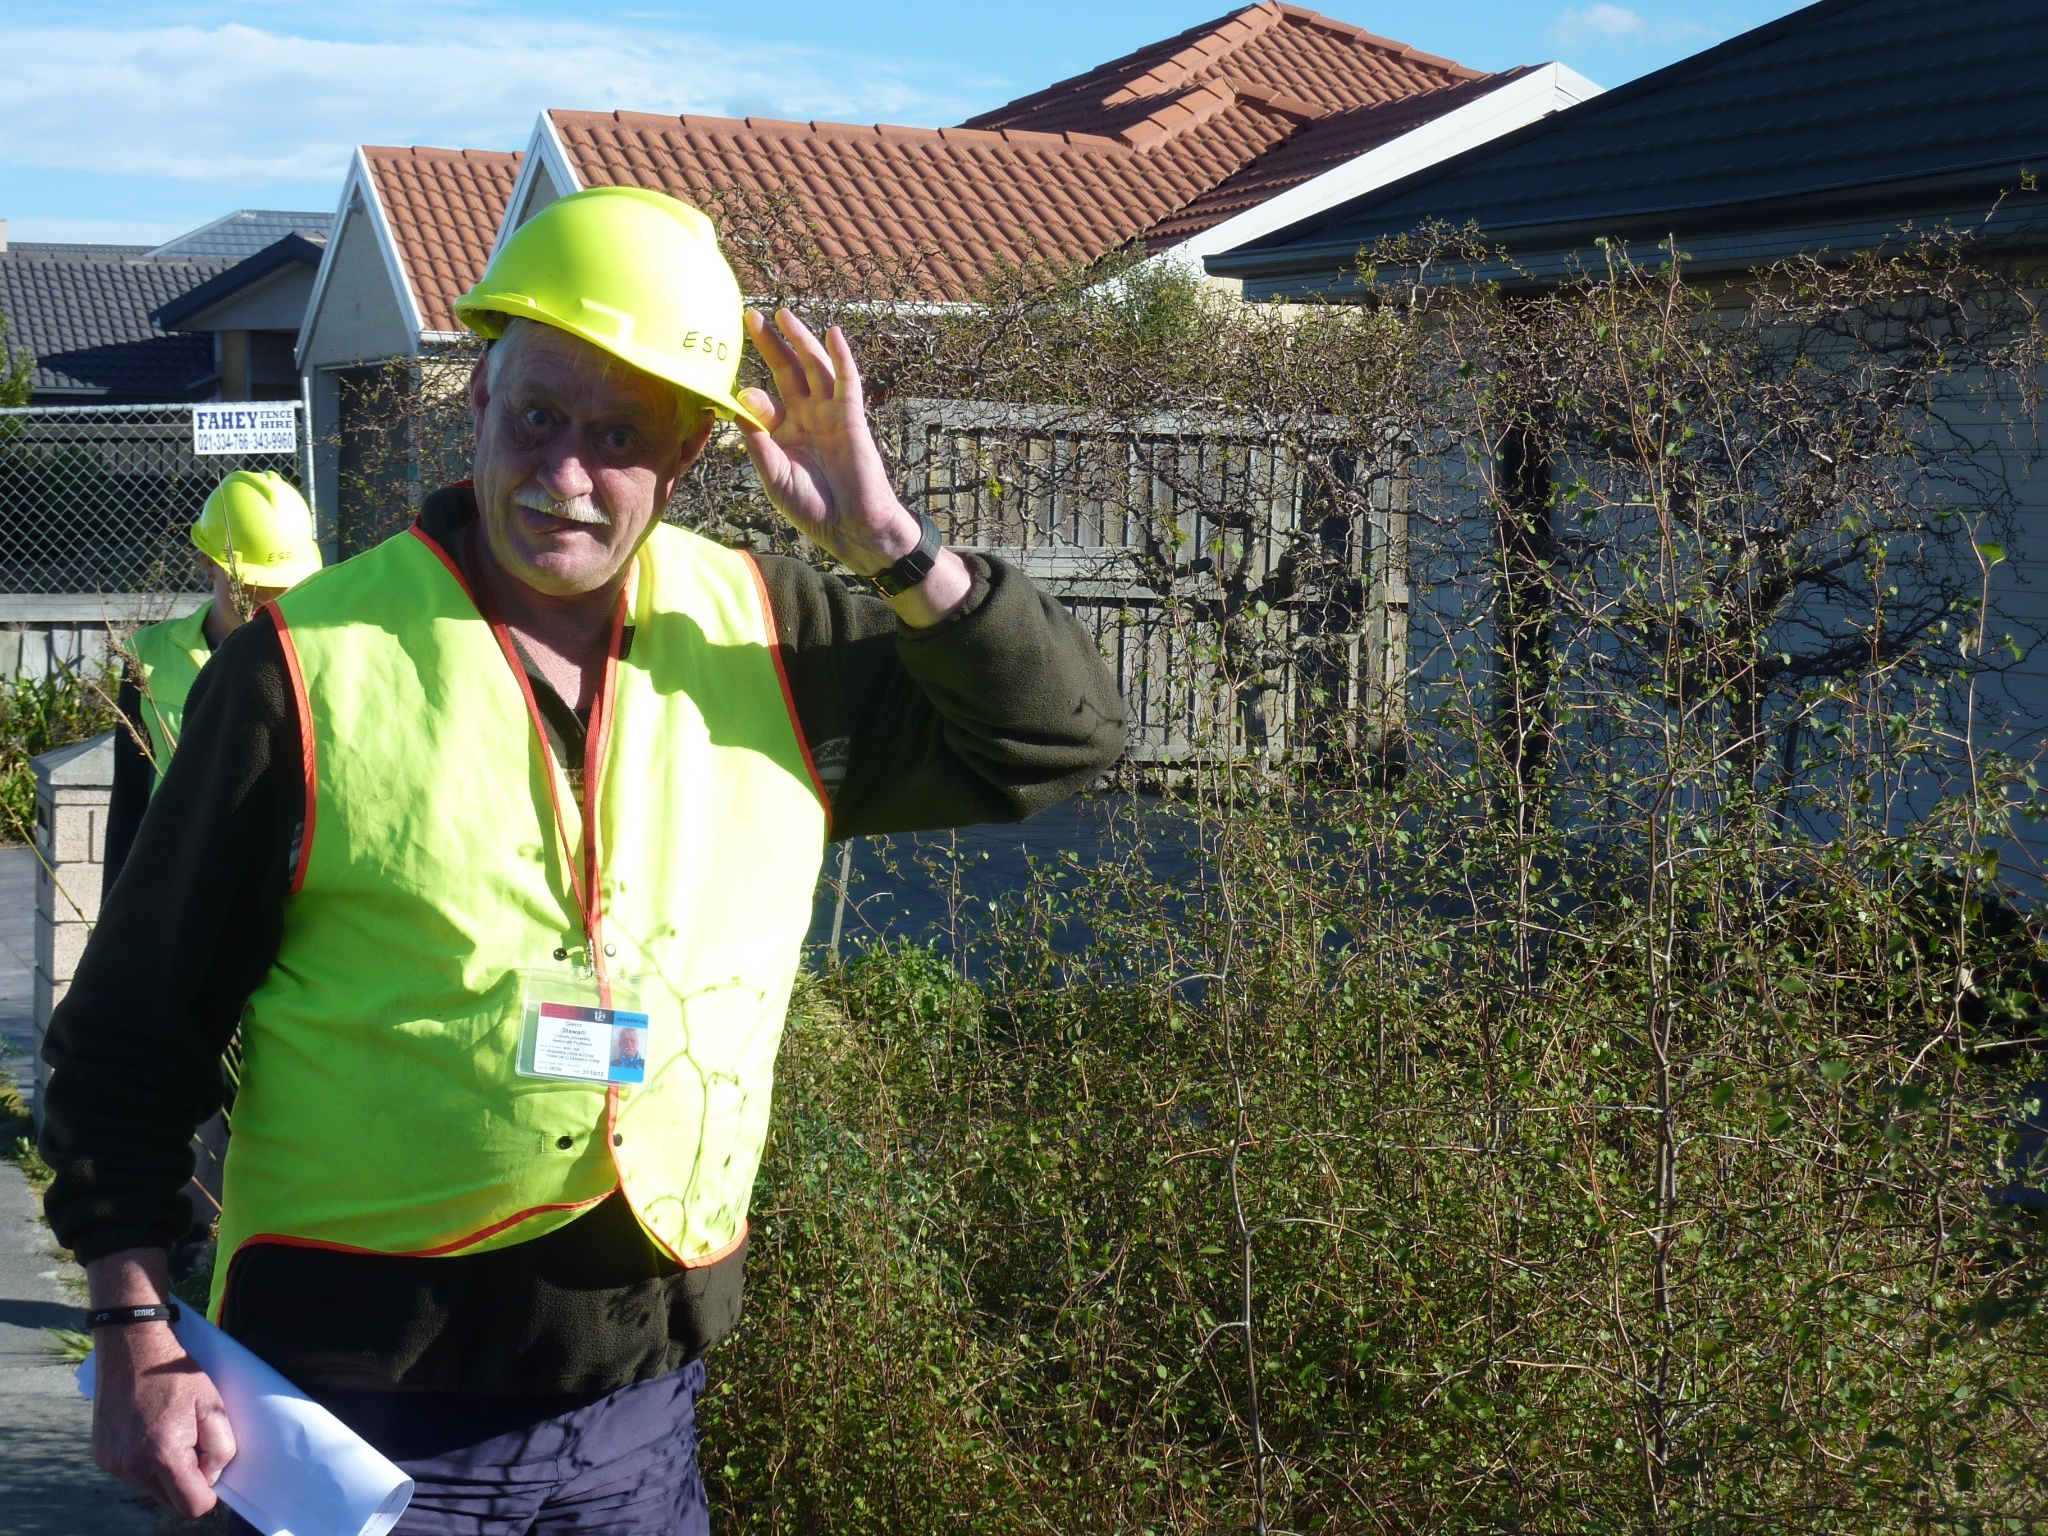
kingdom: Plantae
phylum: Tracheophyta
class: Magnoliopsida
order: Malvales
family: Malvaceae
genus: Plagianthus
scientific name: Plagianthus regius
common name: Manatu
